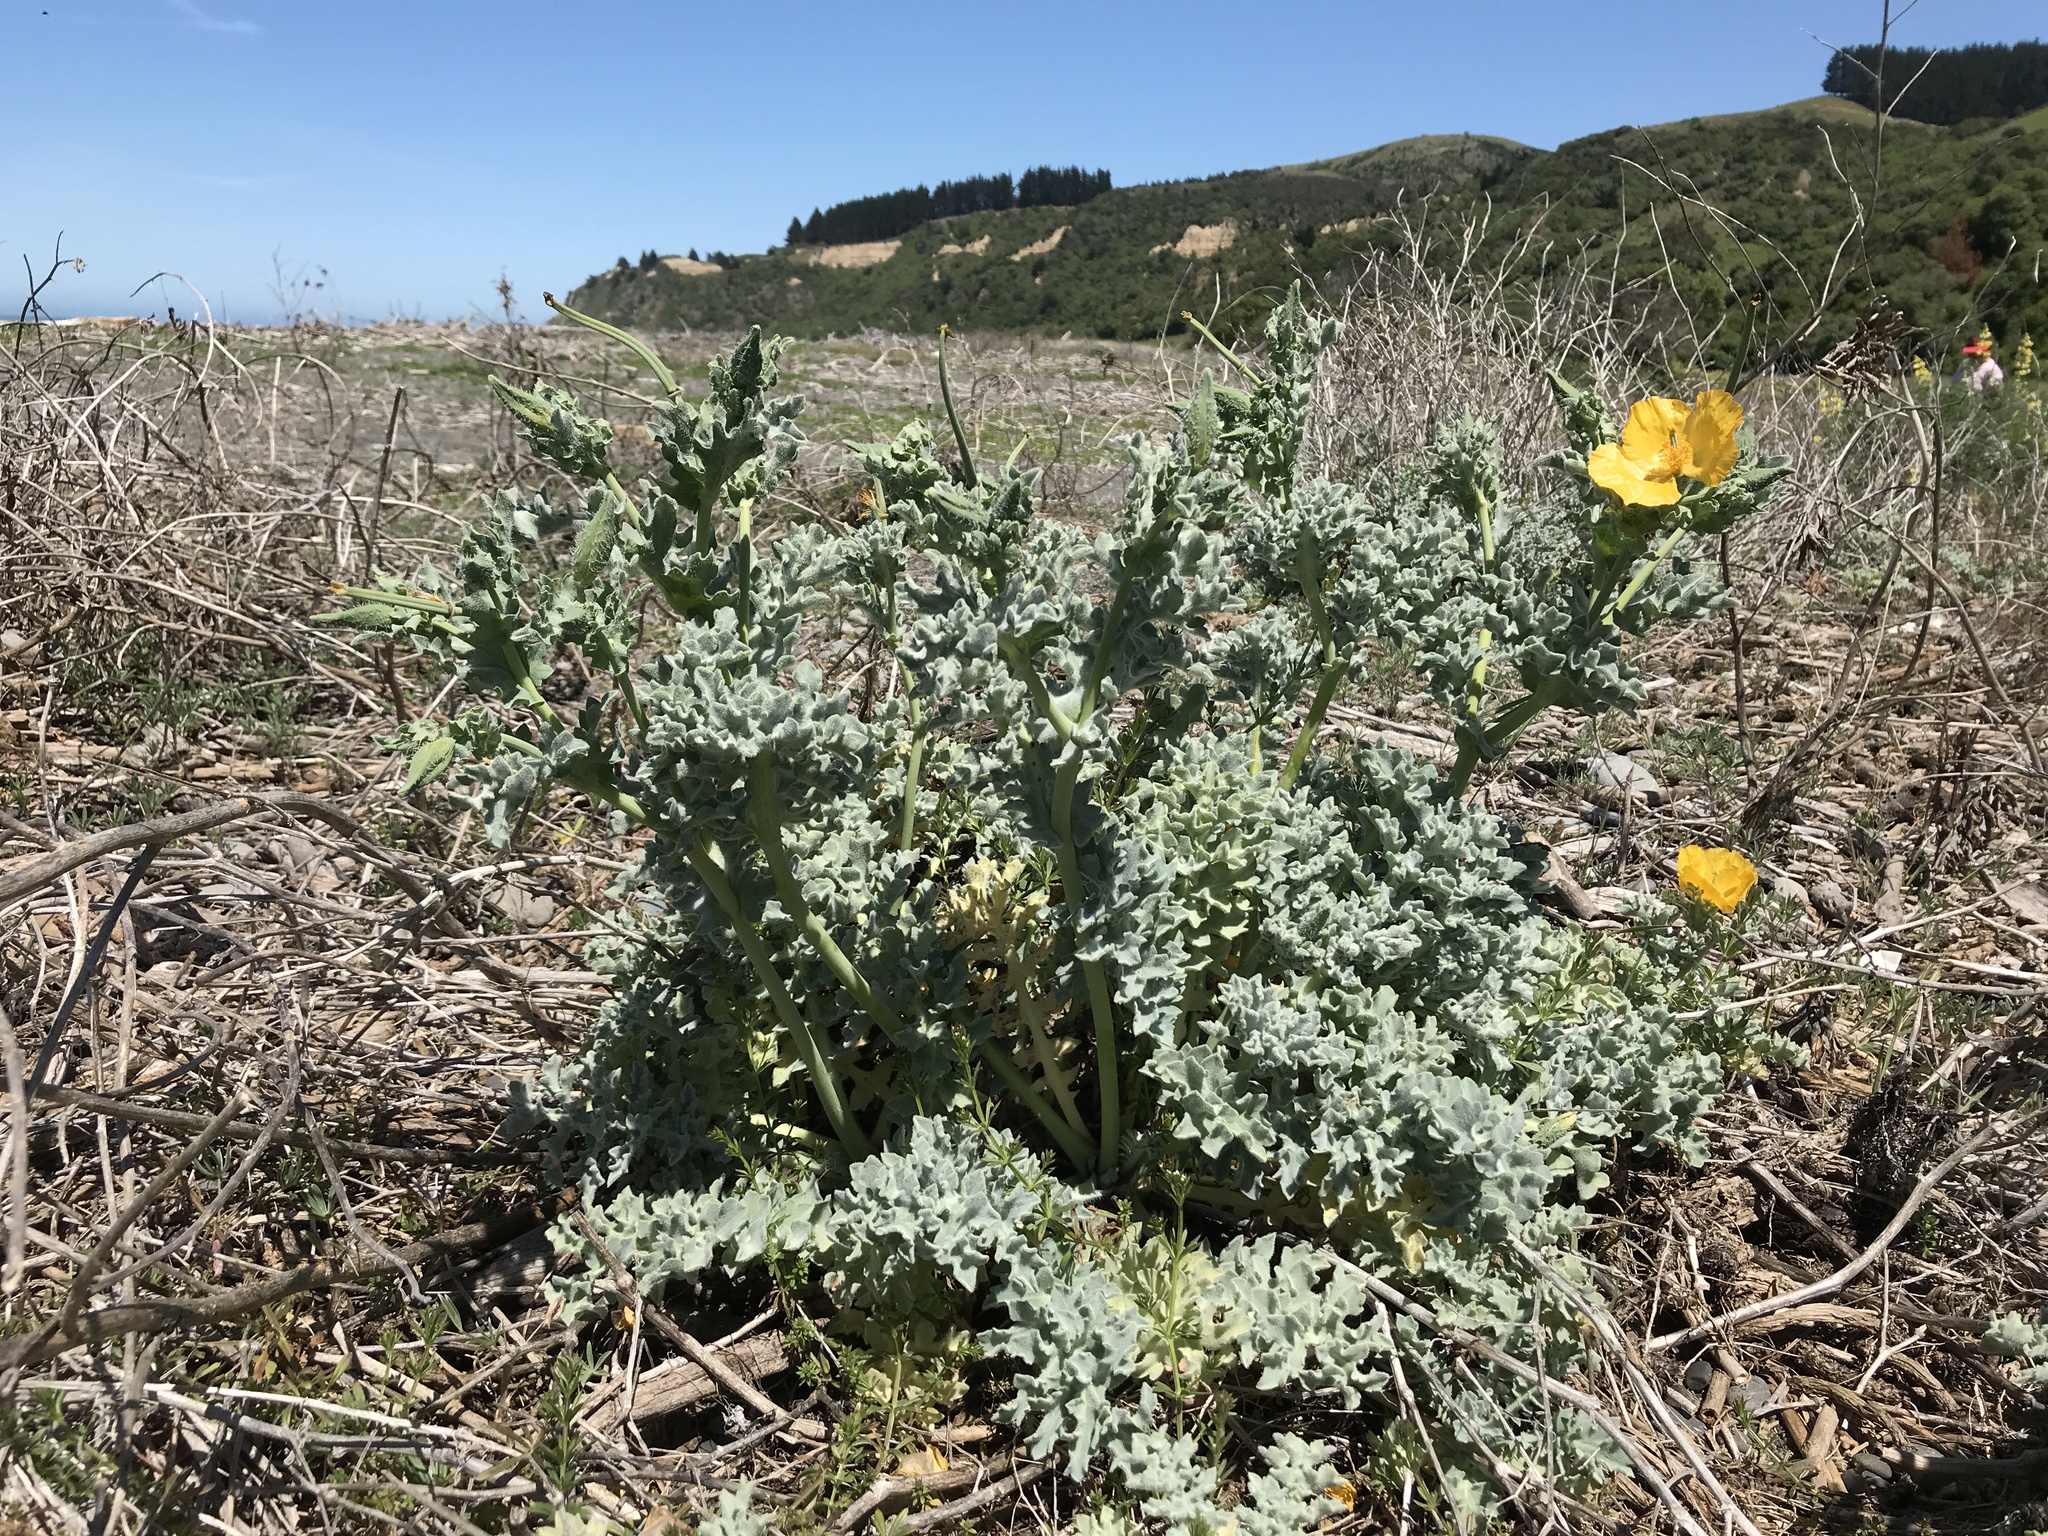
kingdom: Plantae
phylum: Tracheophyta
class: Magnoliopsida
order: Ranunculales
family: Papaveraceae
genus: Glaucium
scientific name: Glaucium flavum
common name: Yellow horned-poppy
